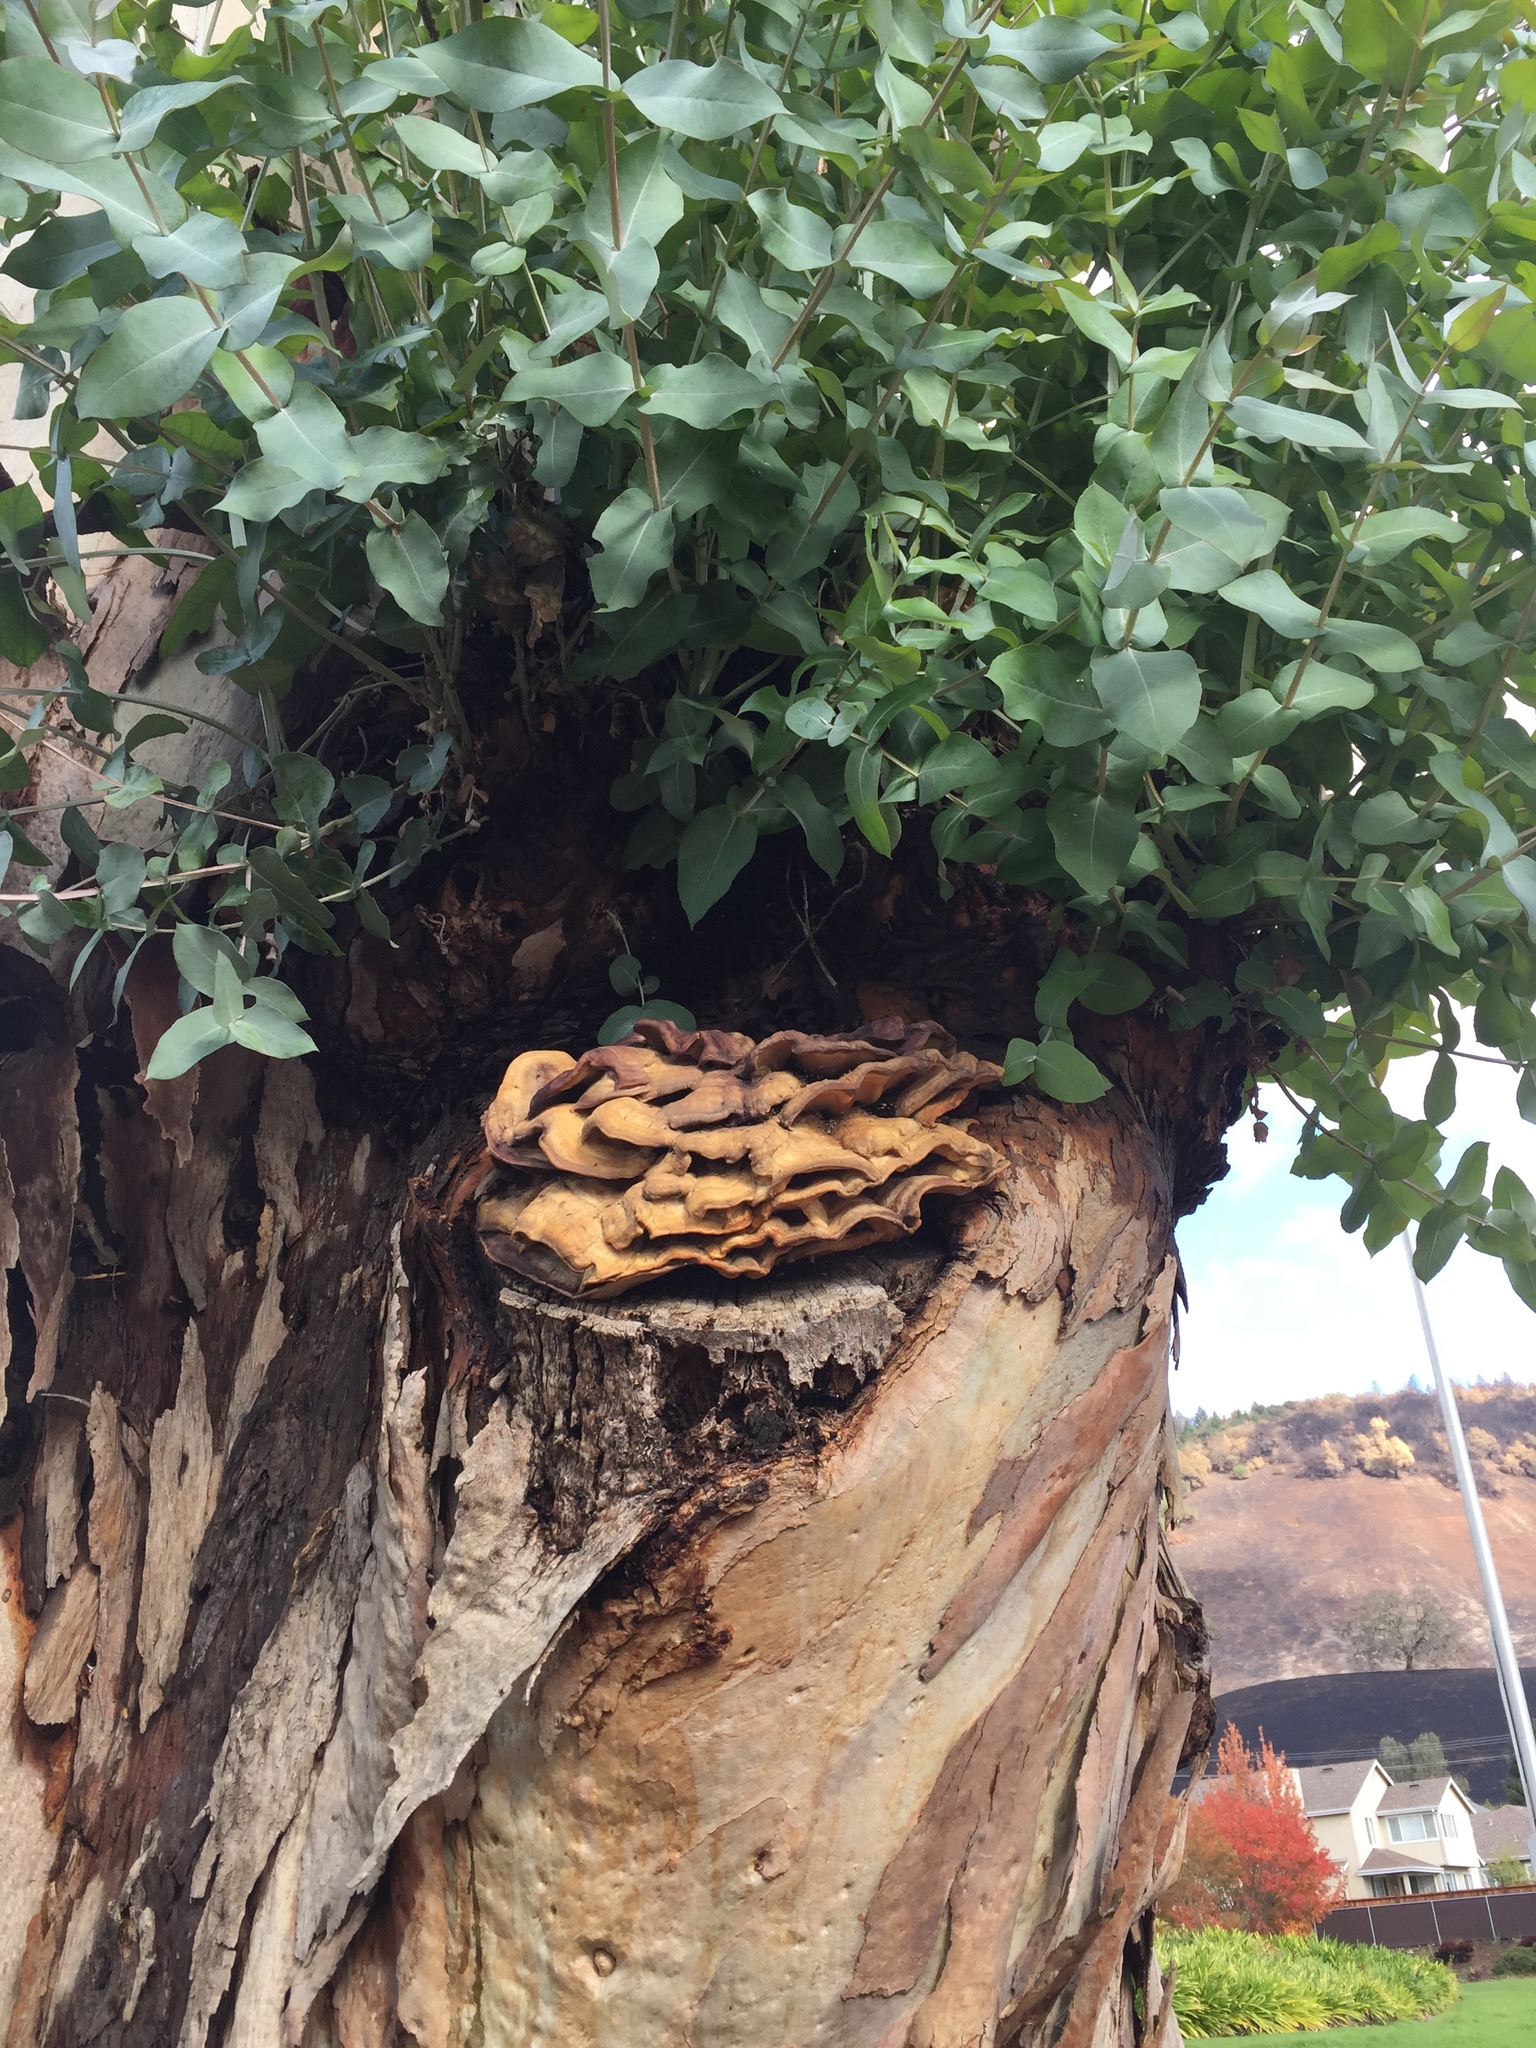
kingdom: Fungi
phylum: Basidiomycota
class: Agaricomycetes
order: Polyporales
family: Laetiporaceae
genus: Laetiporus
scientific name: Laetiporus gilbertsonii
